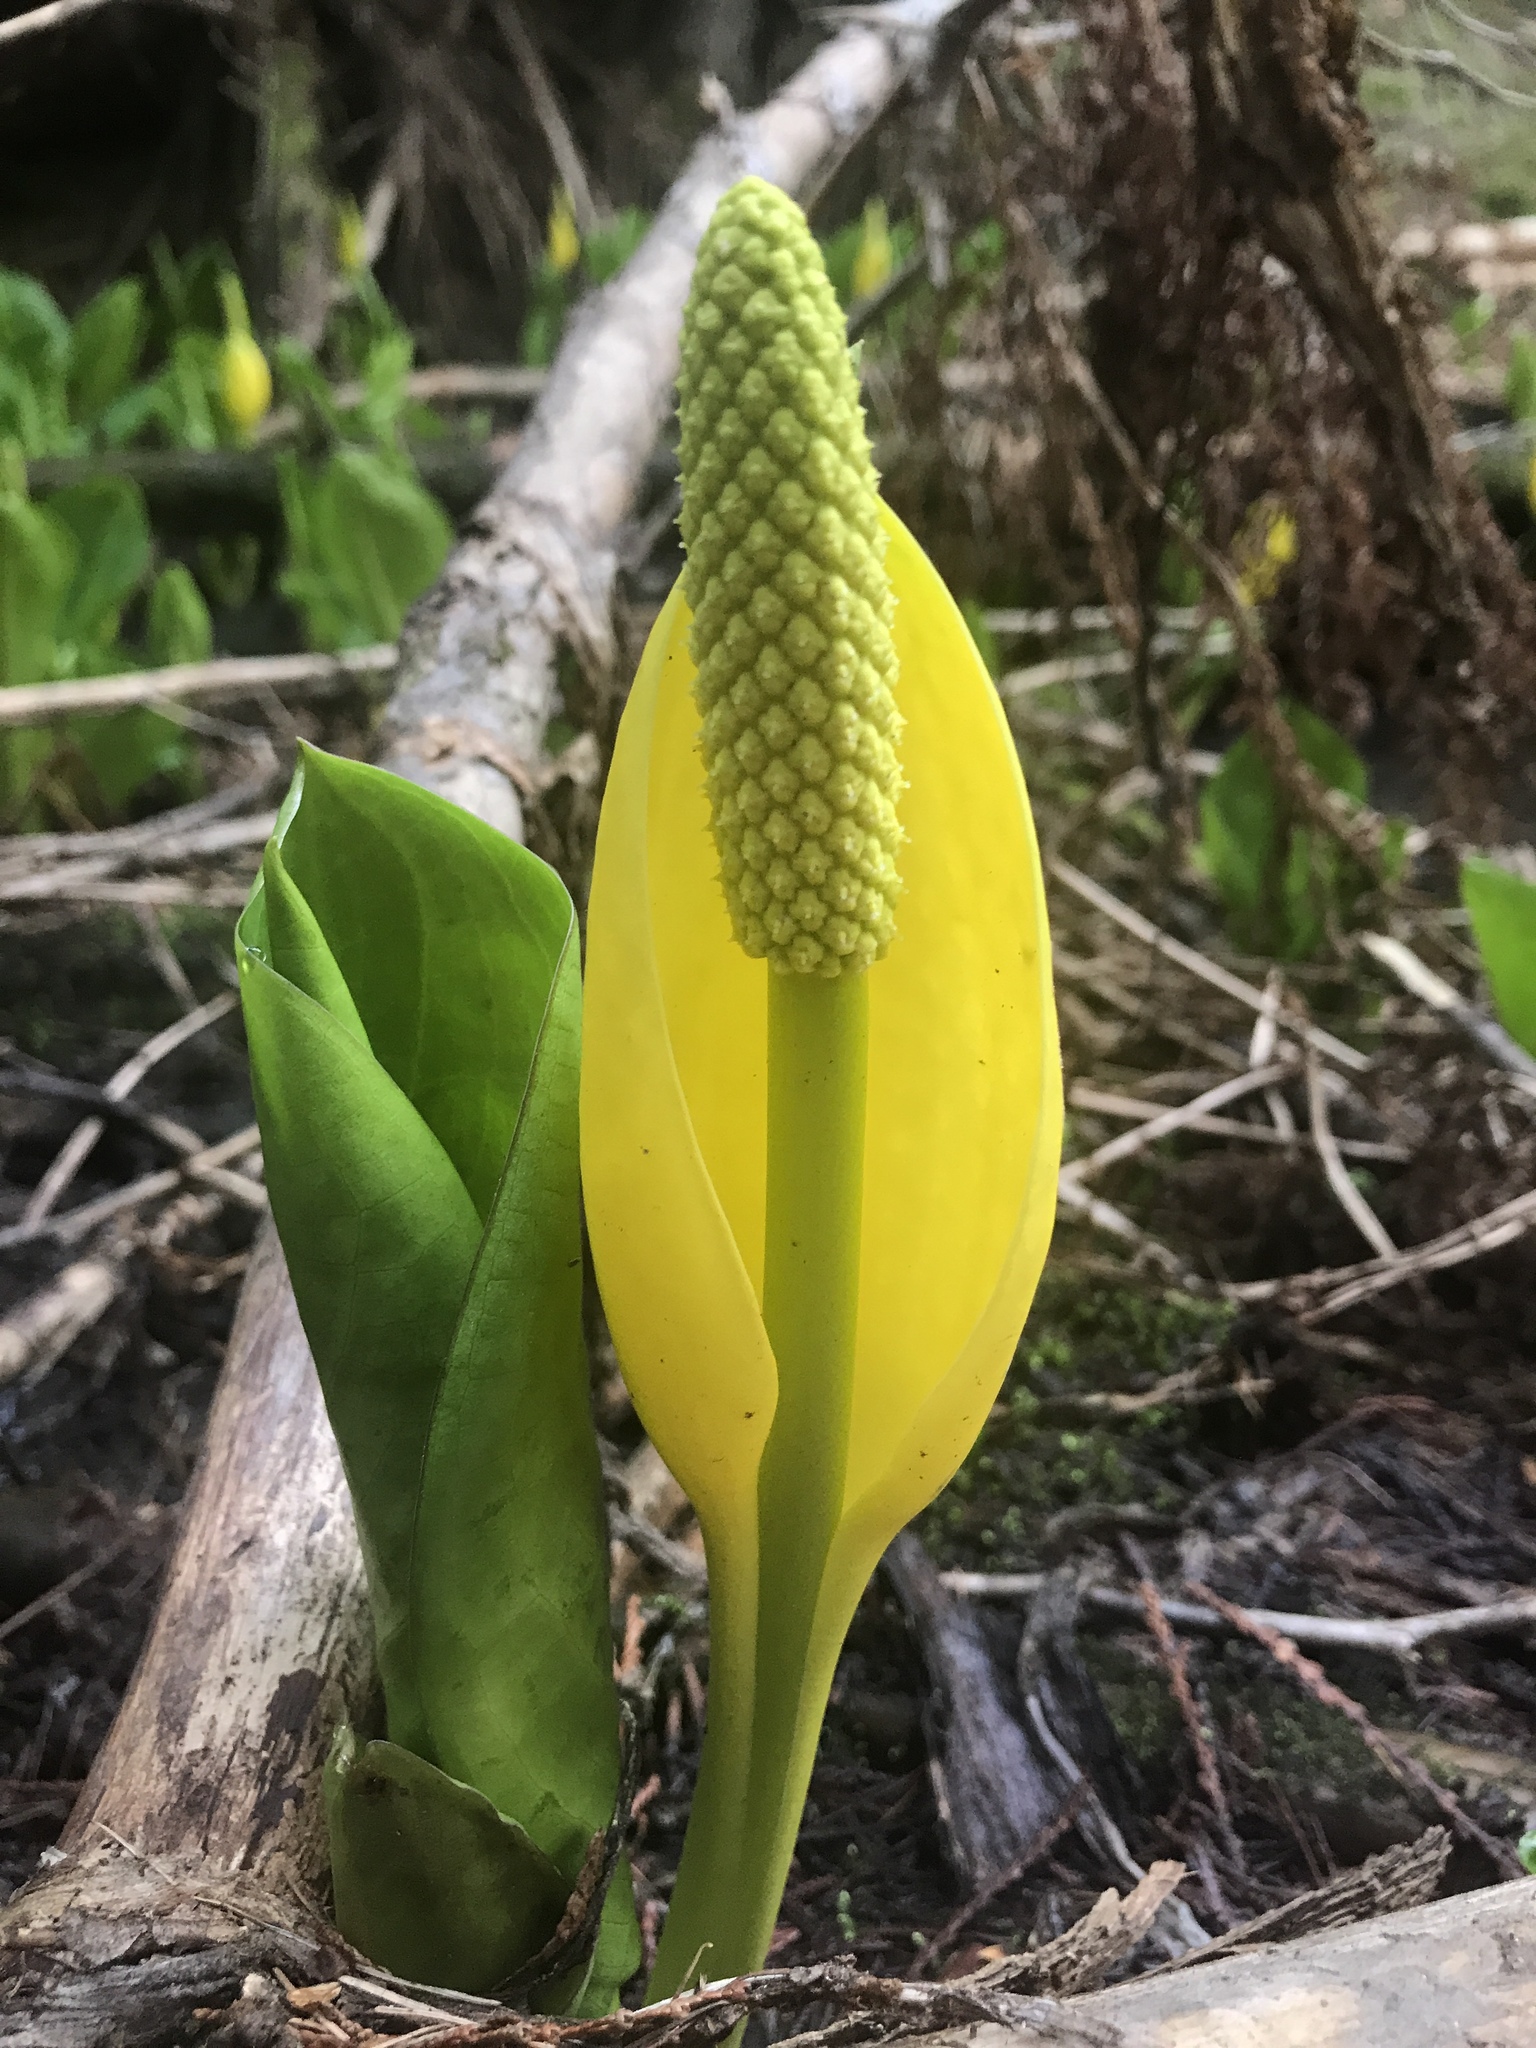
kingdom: Plantae
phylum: Tracheophyta
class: Liliopsida
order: Alismatales
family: Araceae
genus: Lysichiton
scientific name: Lysichiton americanus
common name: American skunk cabbage
